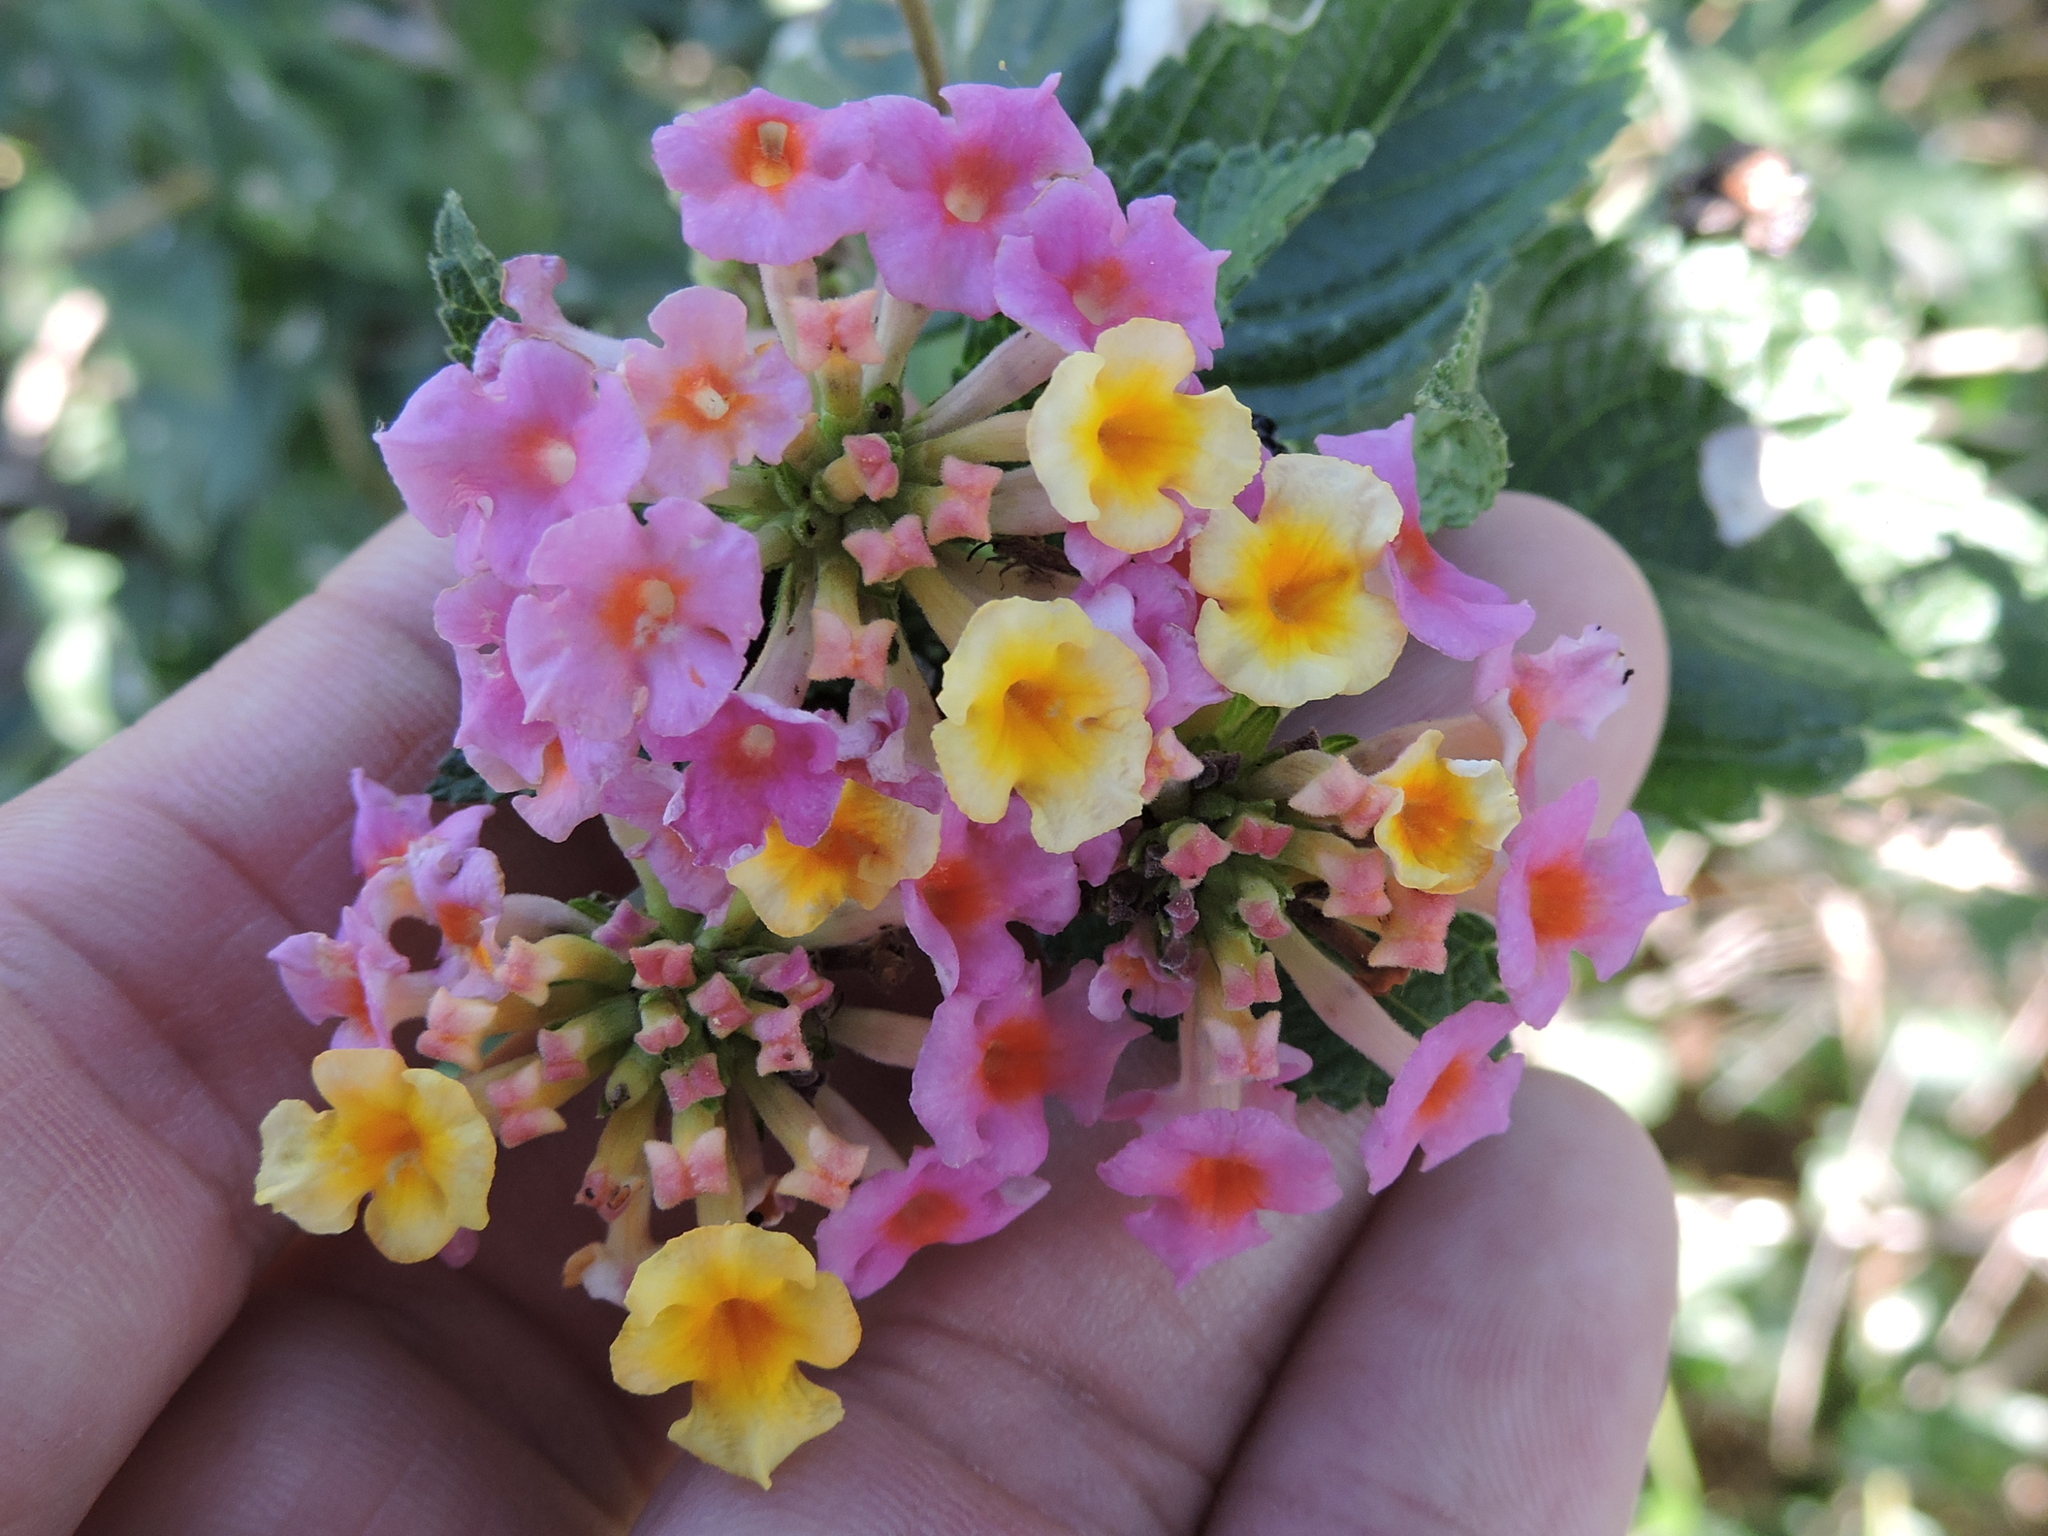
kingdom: Plantae
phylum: Tracheophyta
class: Magnoliopsida
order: Lamiales
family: Verbenaceae
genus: Lantana
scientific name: Lantana strigocamara
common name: Lantana
